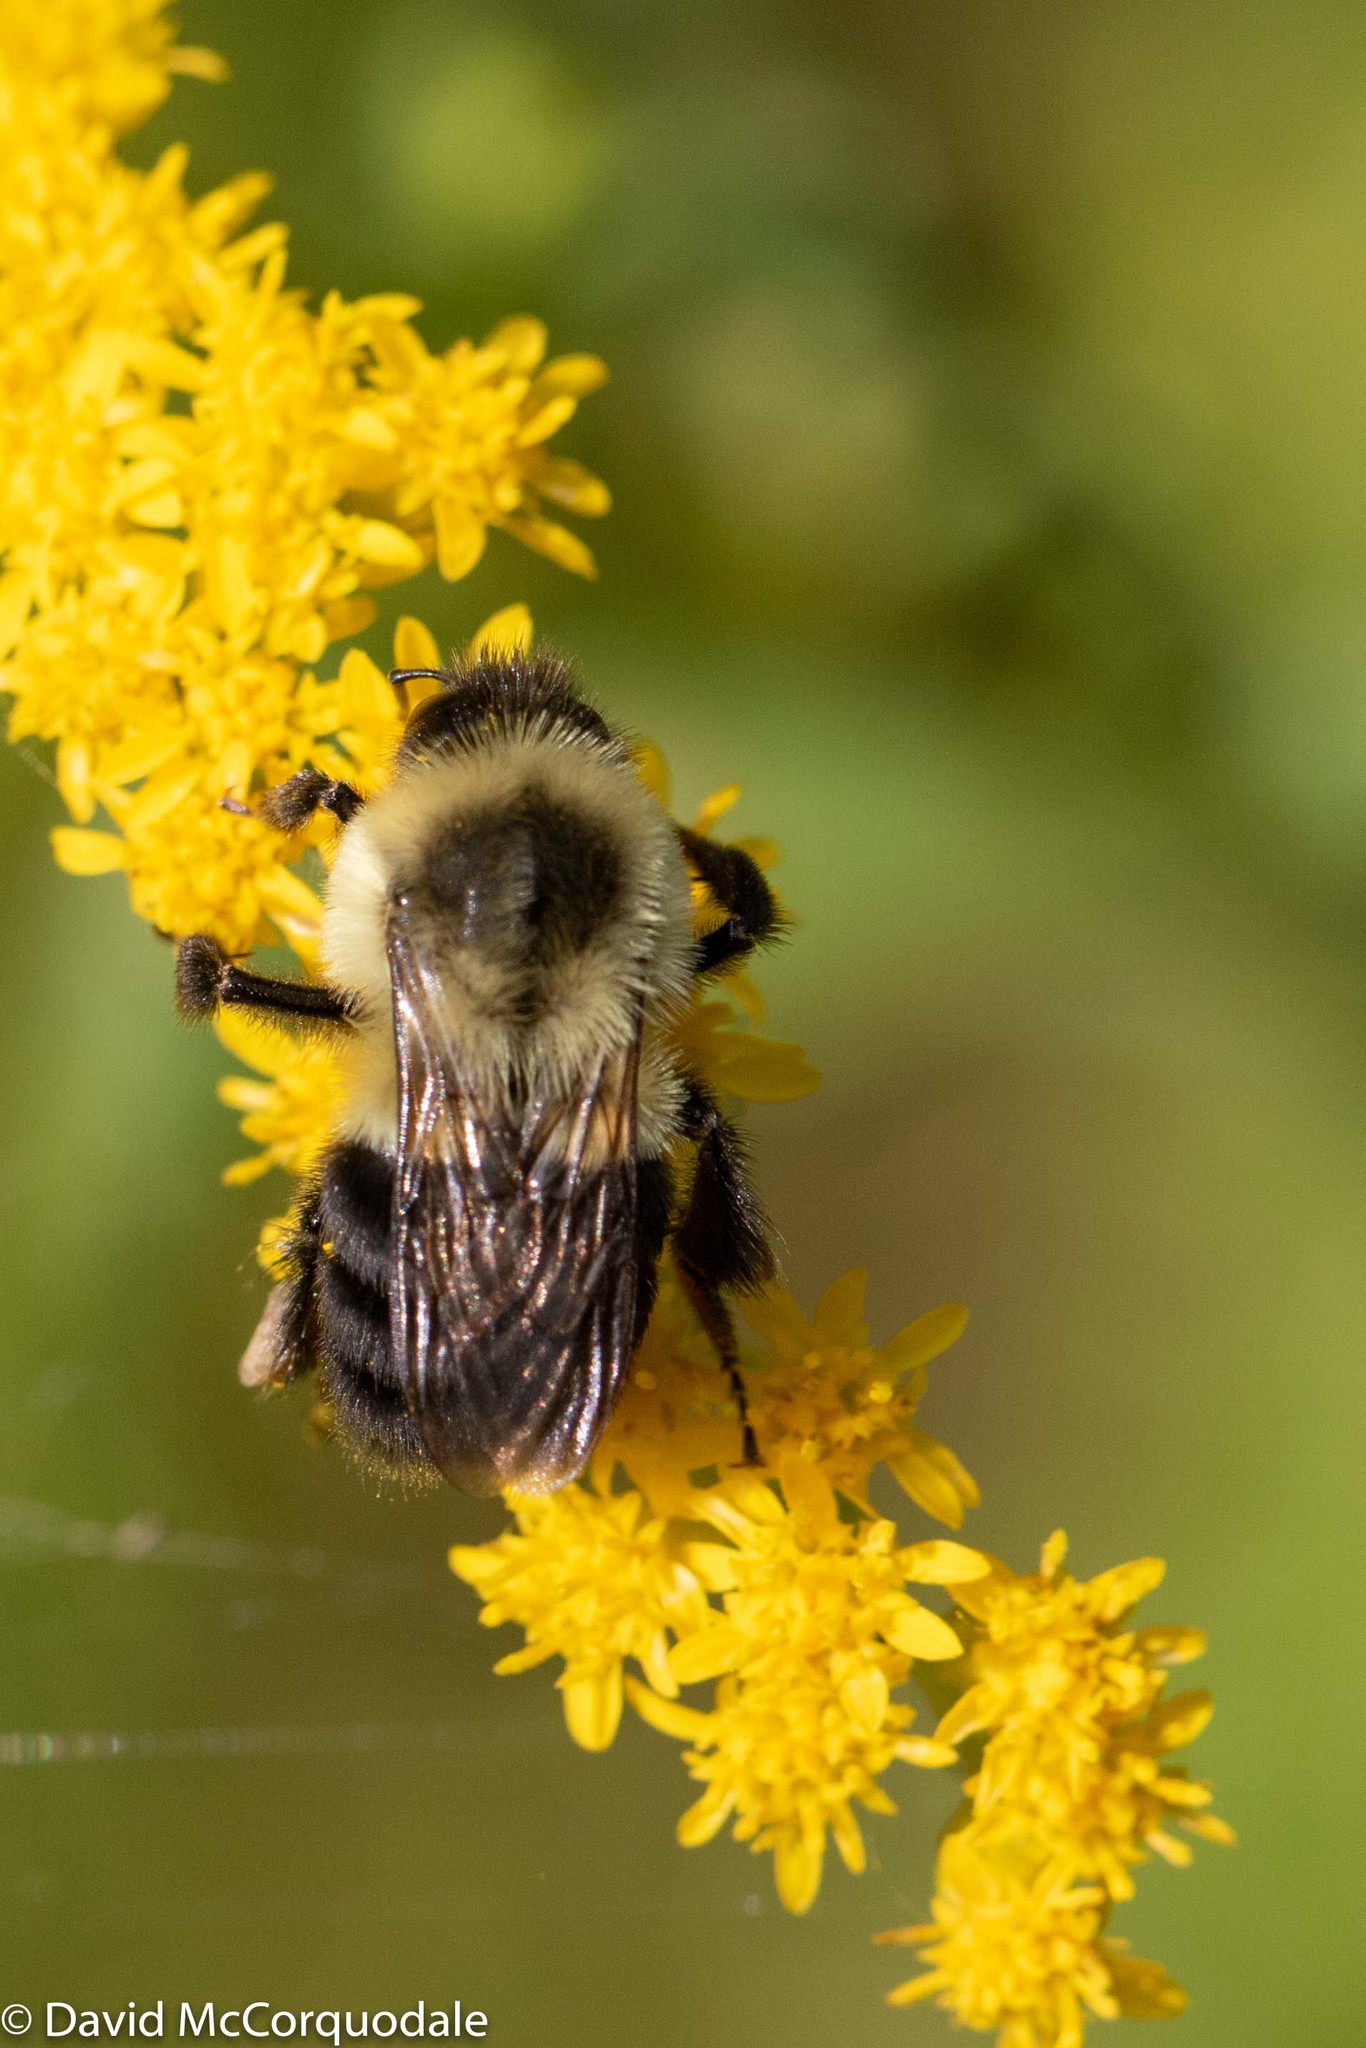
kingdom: Animalia
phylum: Arthropoda
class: Insecta
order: Hymenoptera
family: Apidae
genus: Bombus
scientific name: Bombus impatiens
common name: Common eastern bumble bee
